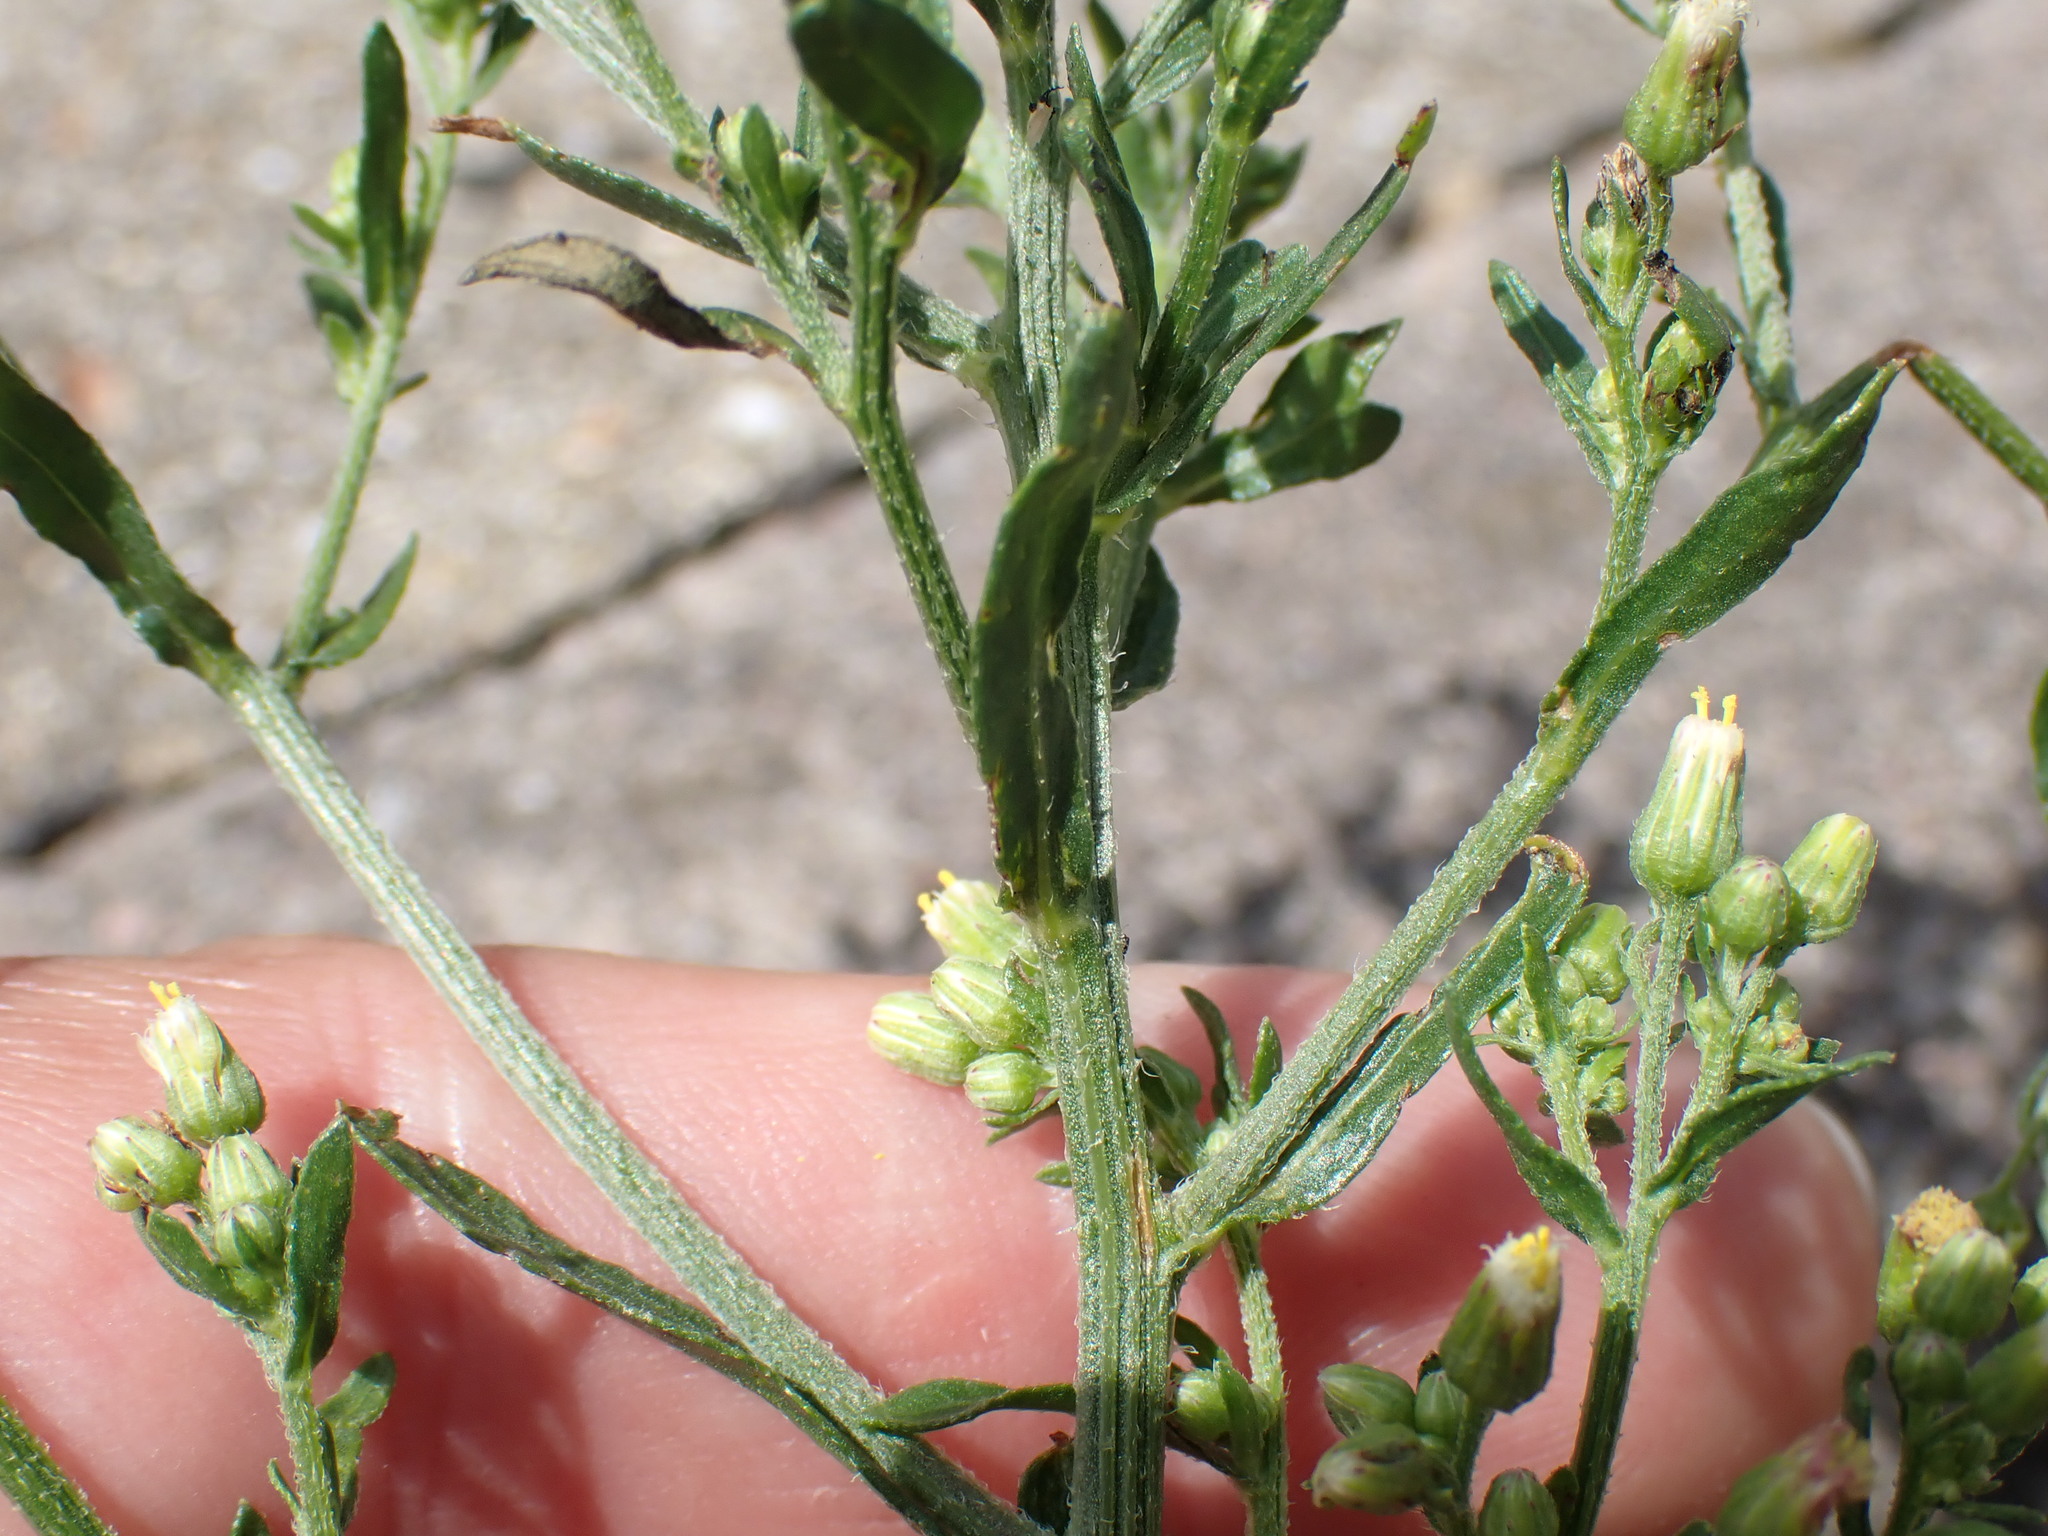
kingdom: Plantae
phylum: Tracheophyta
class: Magnoliopsida
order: Asterales
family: Asteraceae
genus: Erigeron
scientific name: Erigeron floribundus
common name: Bilbao fleabane
